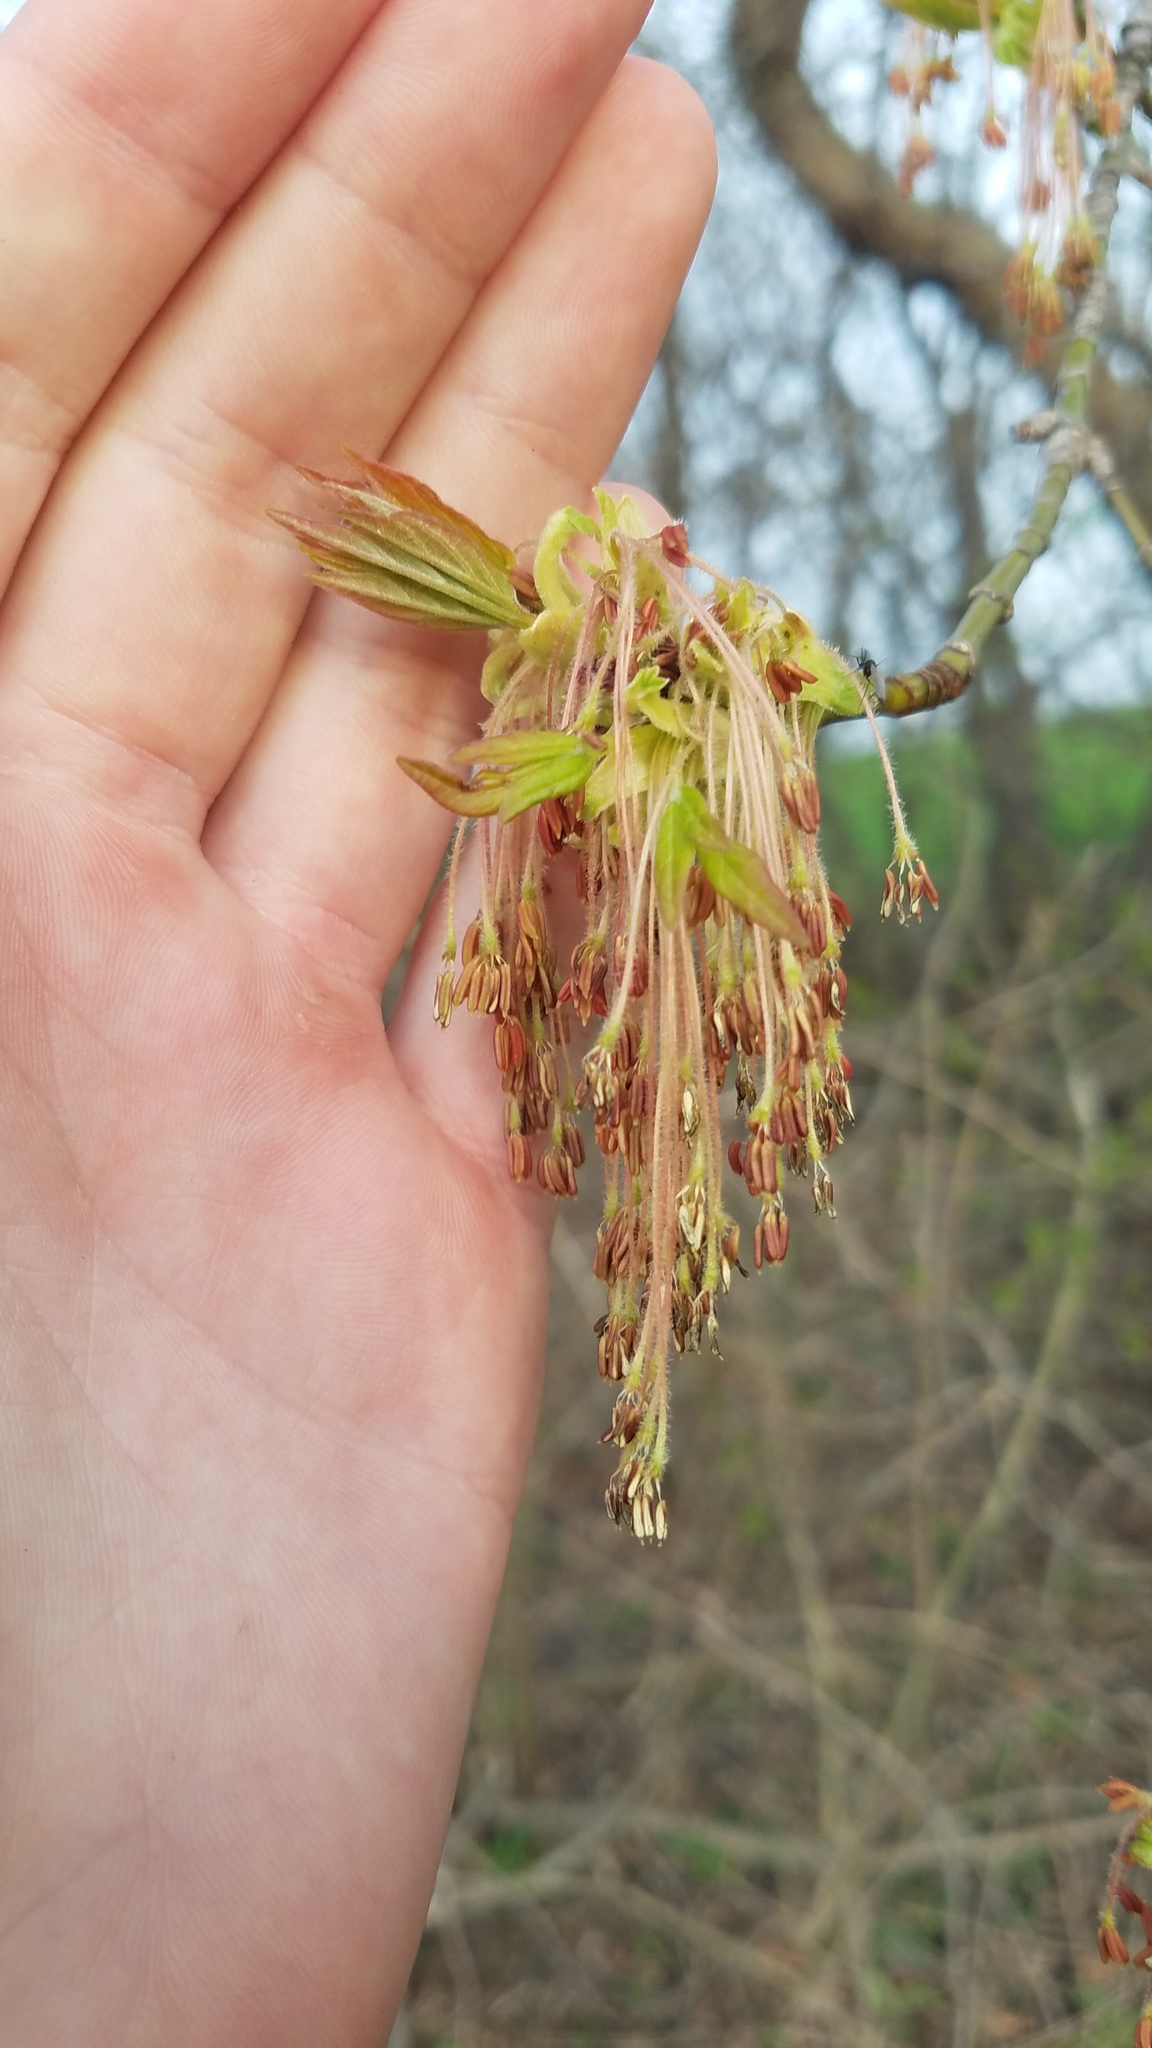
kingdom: Plantae
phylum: Tracheophyta
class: Magnoliopsida
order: Sapindales
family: Sapindaceae
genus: Acer
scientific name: Acer negundo
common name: Ashleaf maple
